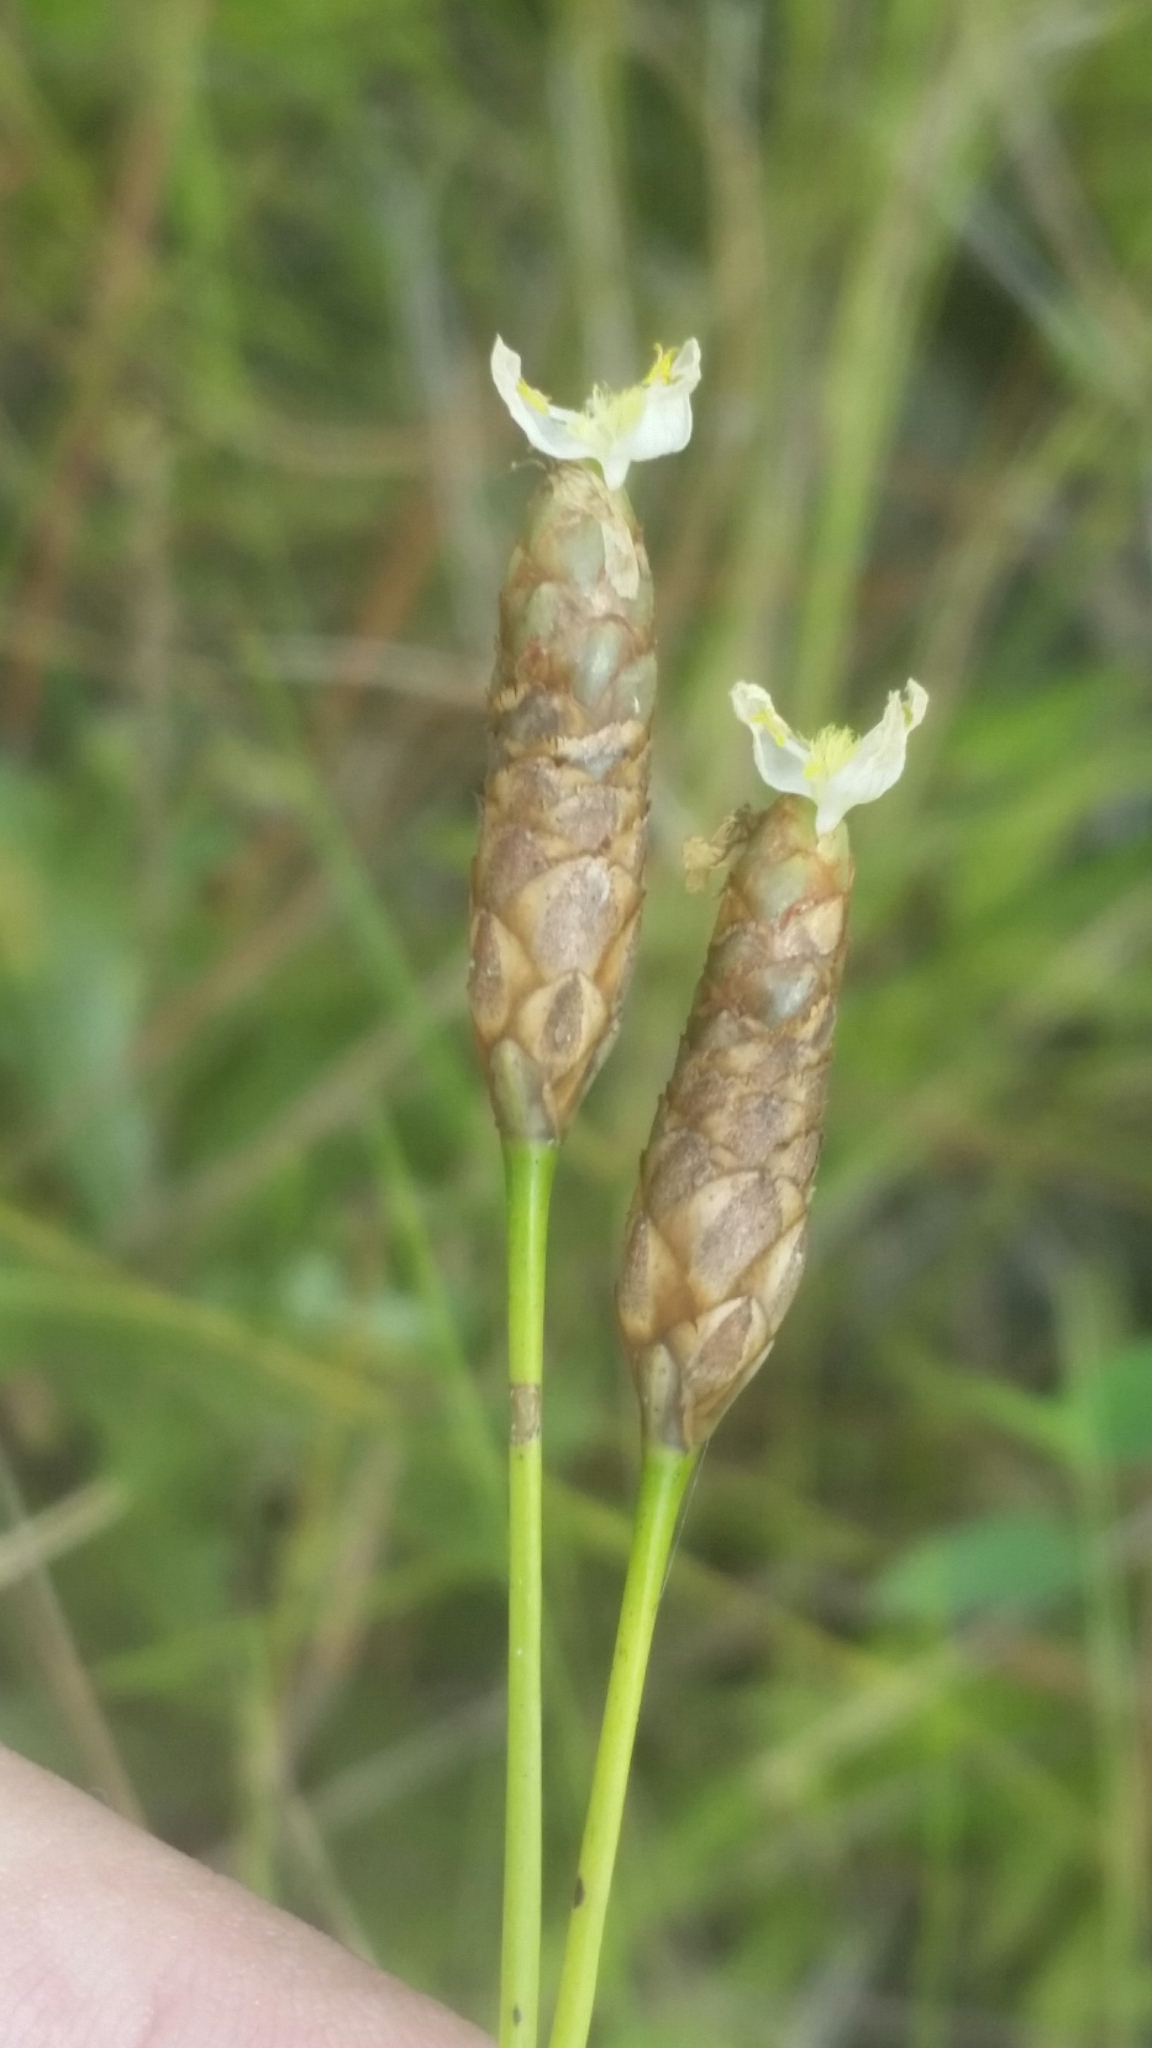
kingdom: Plantae
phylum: Tracheophyta
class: Liliopsida
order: Poales
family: Xyridaceae
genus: Xyris
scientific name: Xyris caroliniana
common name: Carolina yellow-eyed-grass
